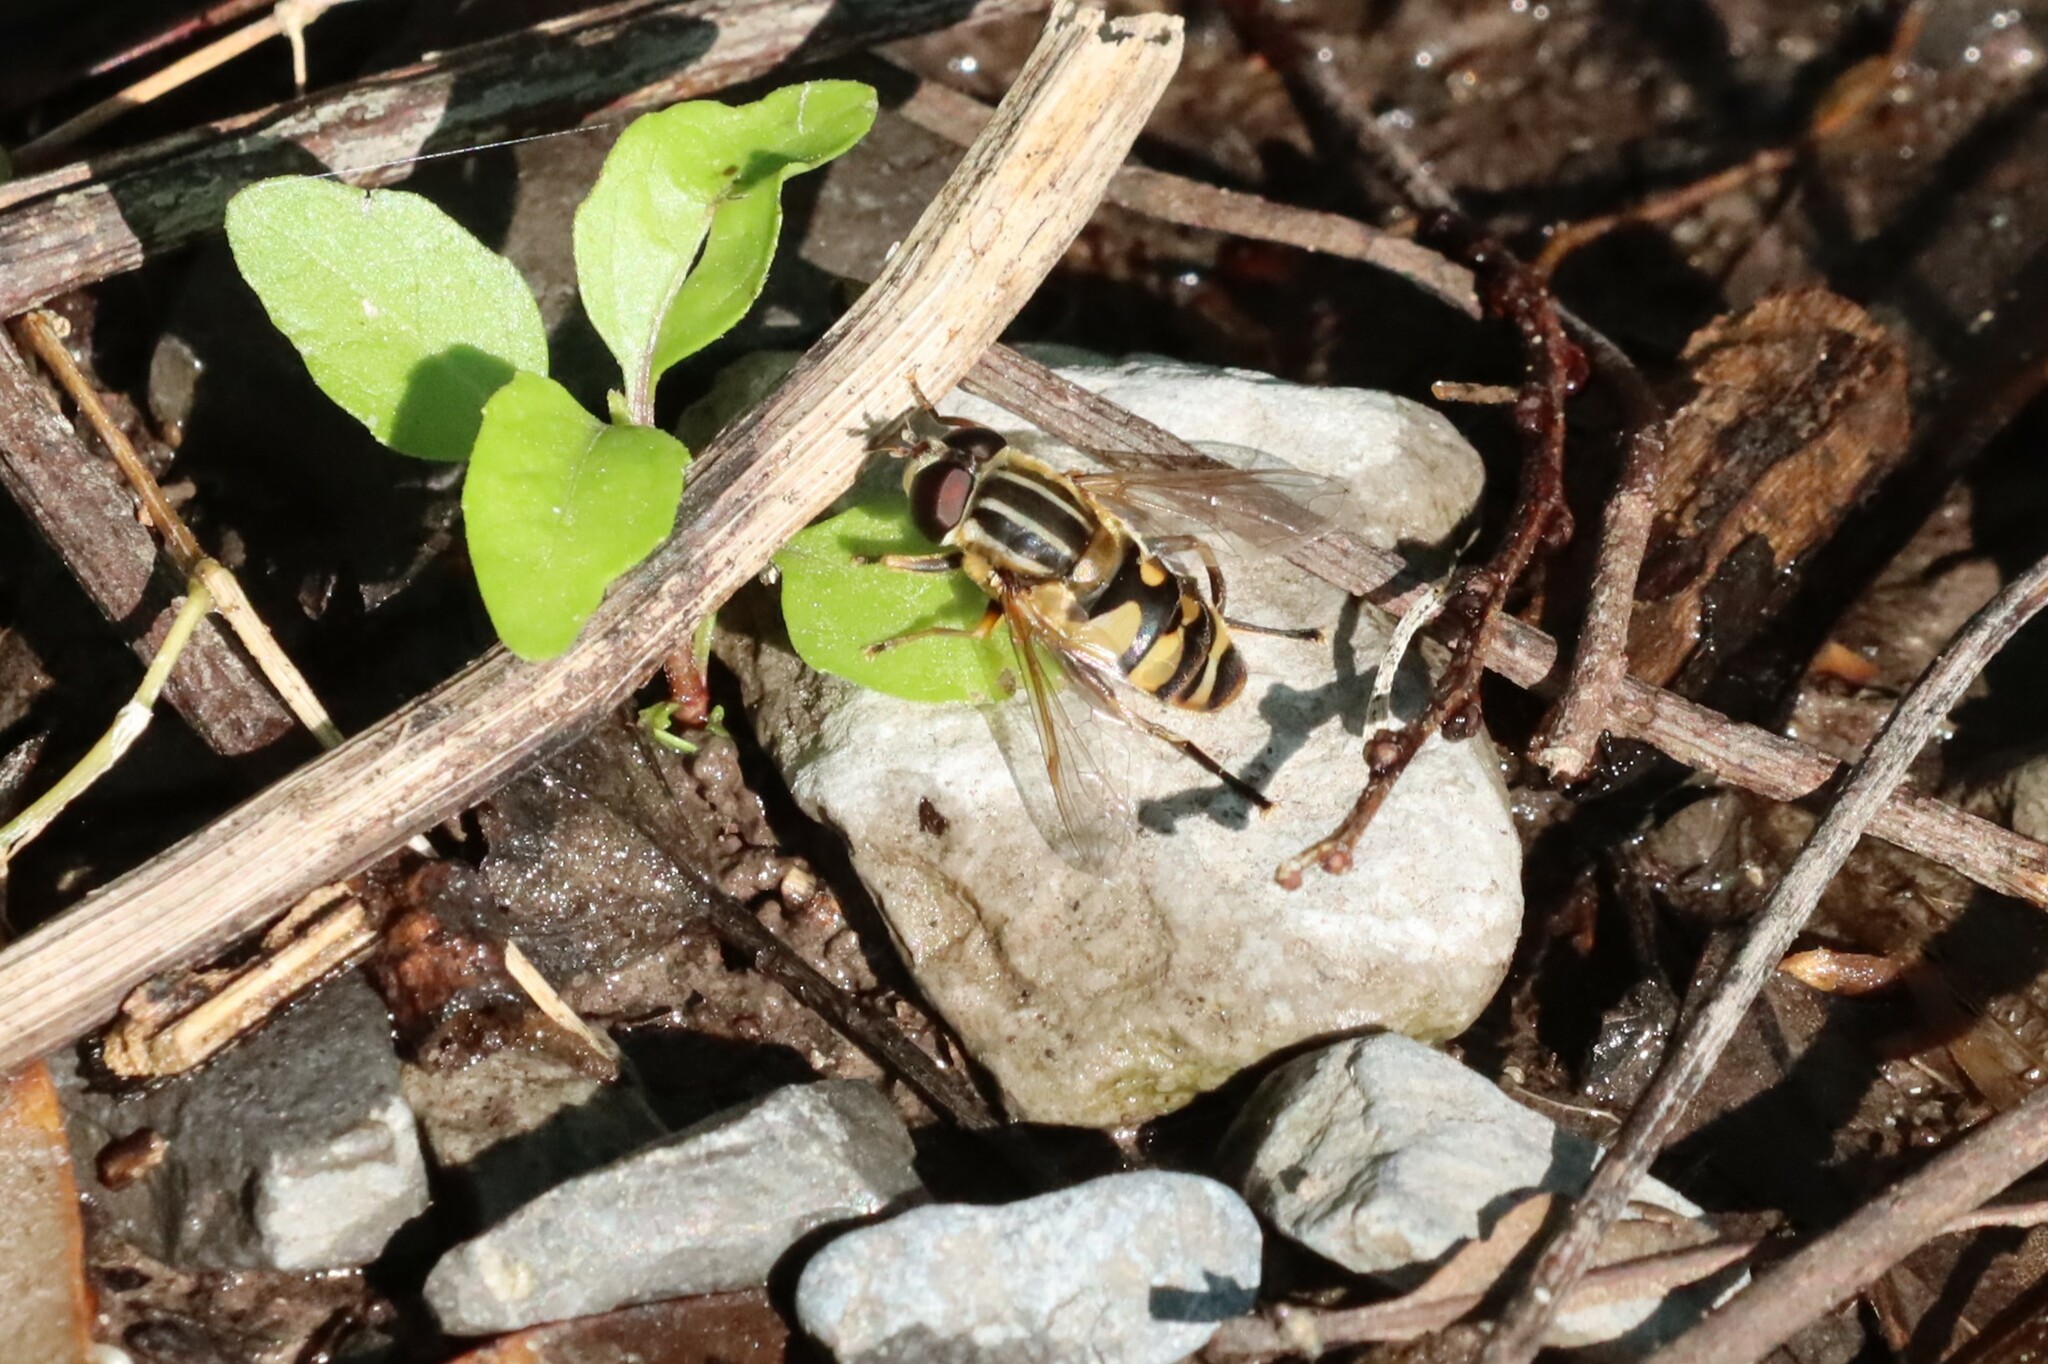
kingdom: Animalia
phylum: Arthropoda
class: Insecta
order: Diptera
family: Syrphidae
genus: Helophilus
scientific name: Helophilus fasciatus
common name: Narrow-headed marsh fly
